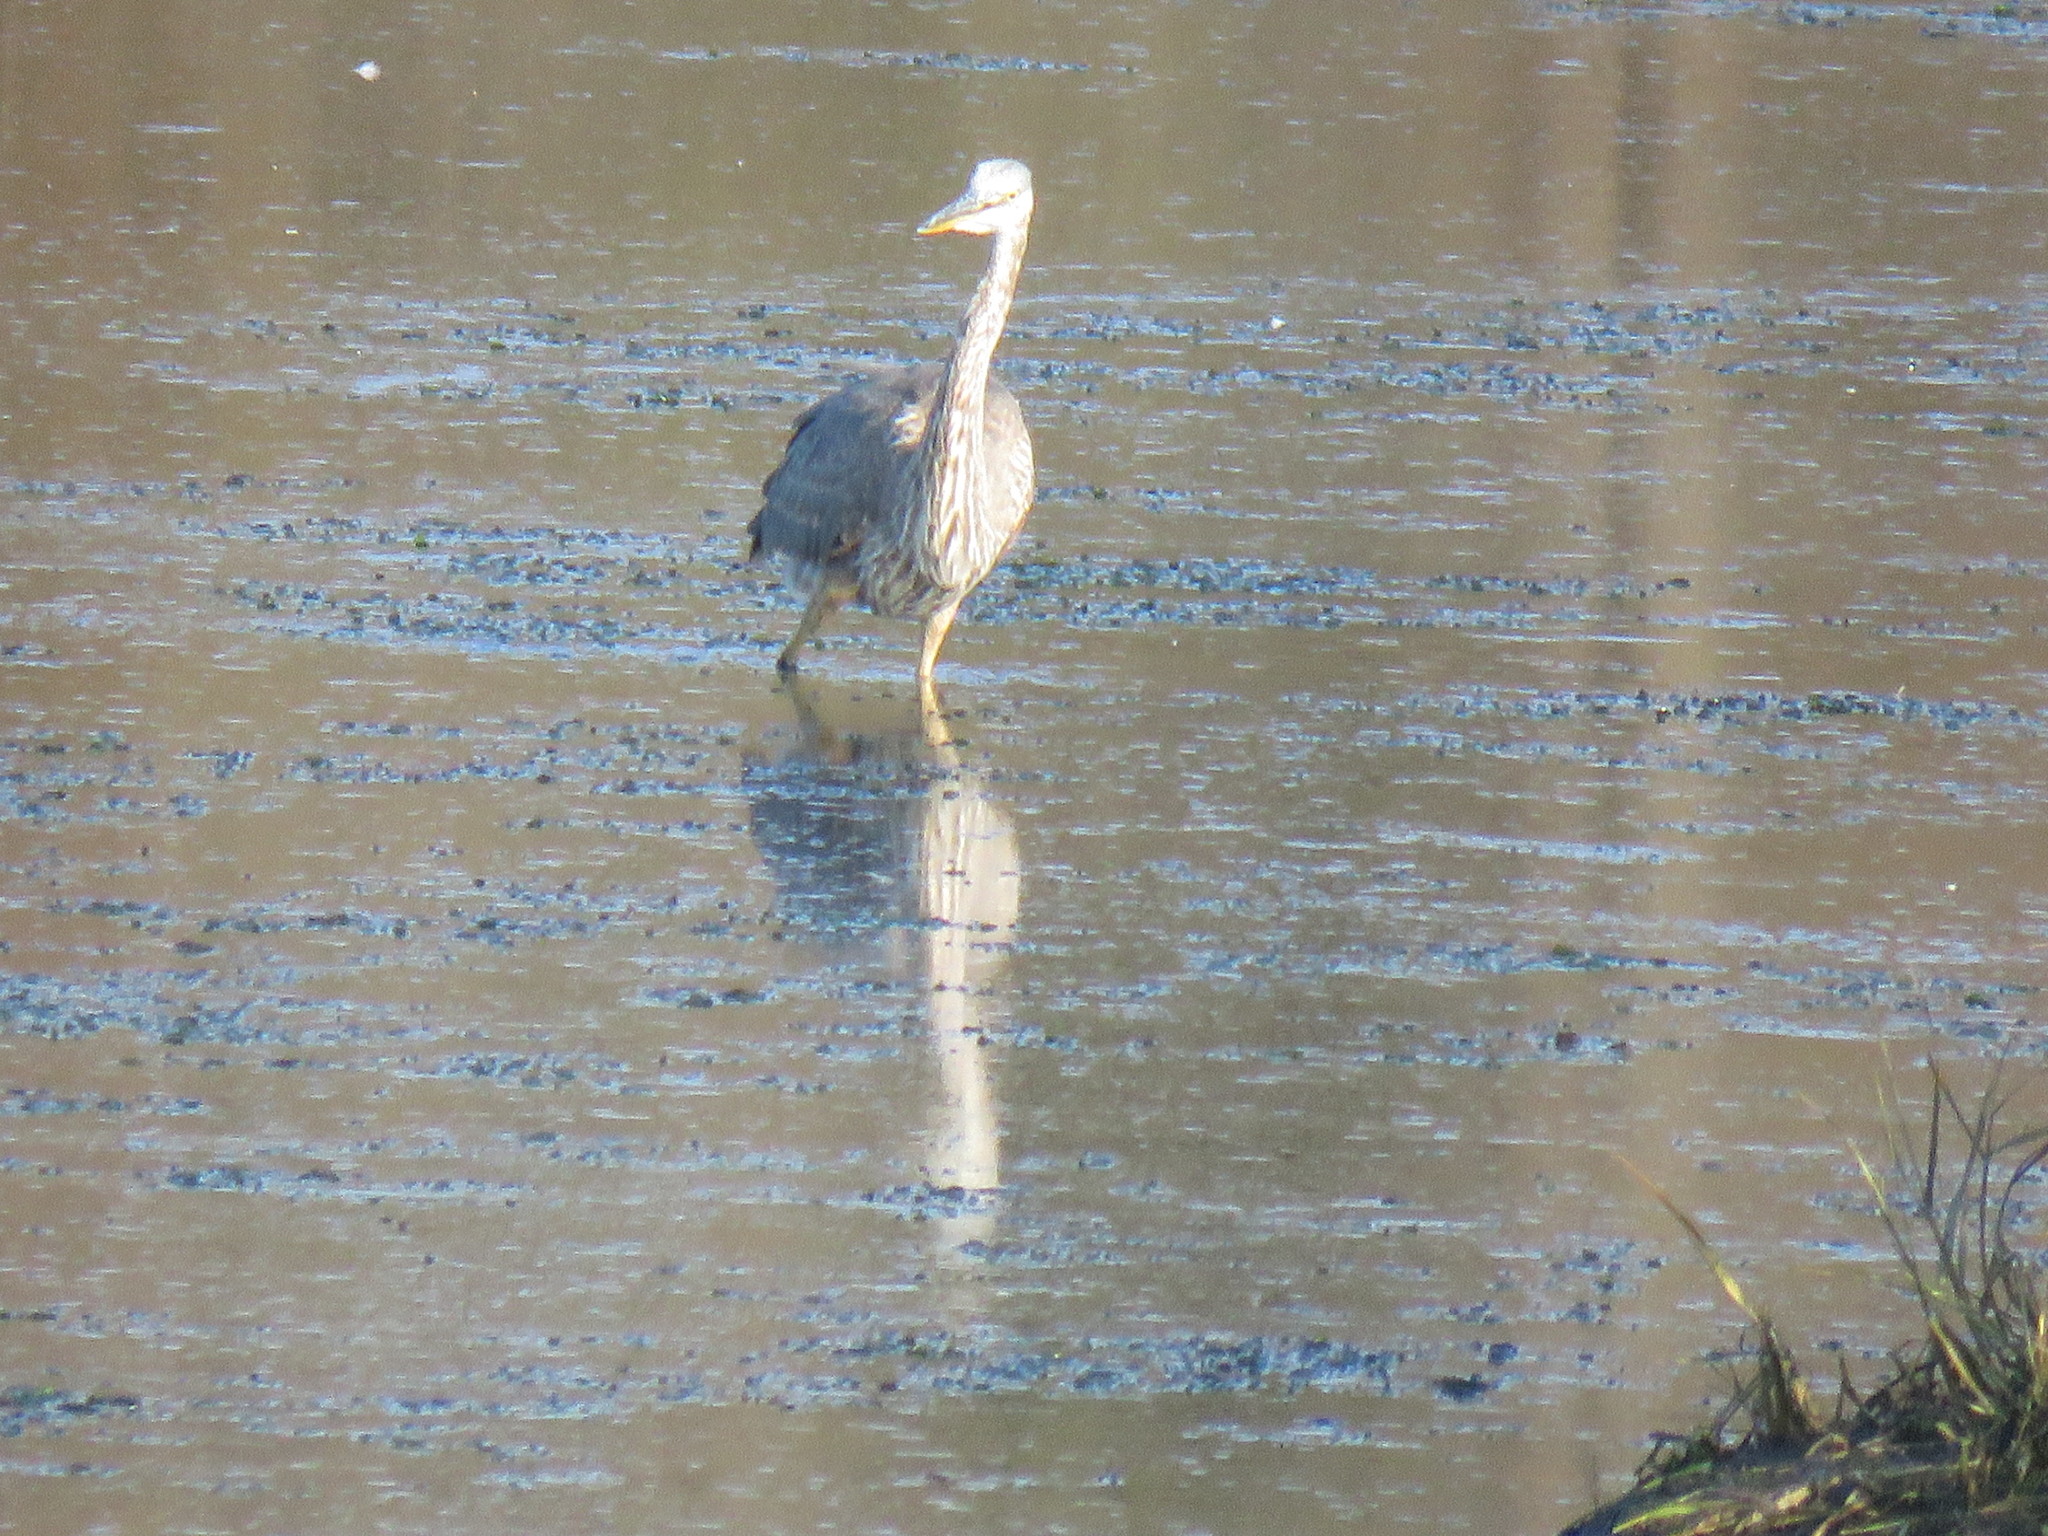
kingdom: Animalia
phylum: Chordata
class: Aves
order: Pelecaniformes
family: Ardeidae
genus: Ardea
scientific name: Ardea herodias
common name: Great blue heron
